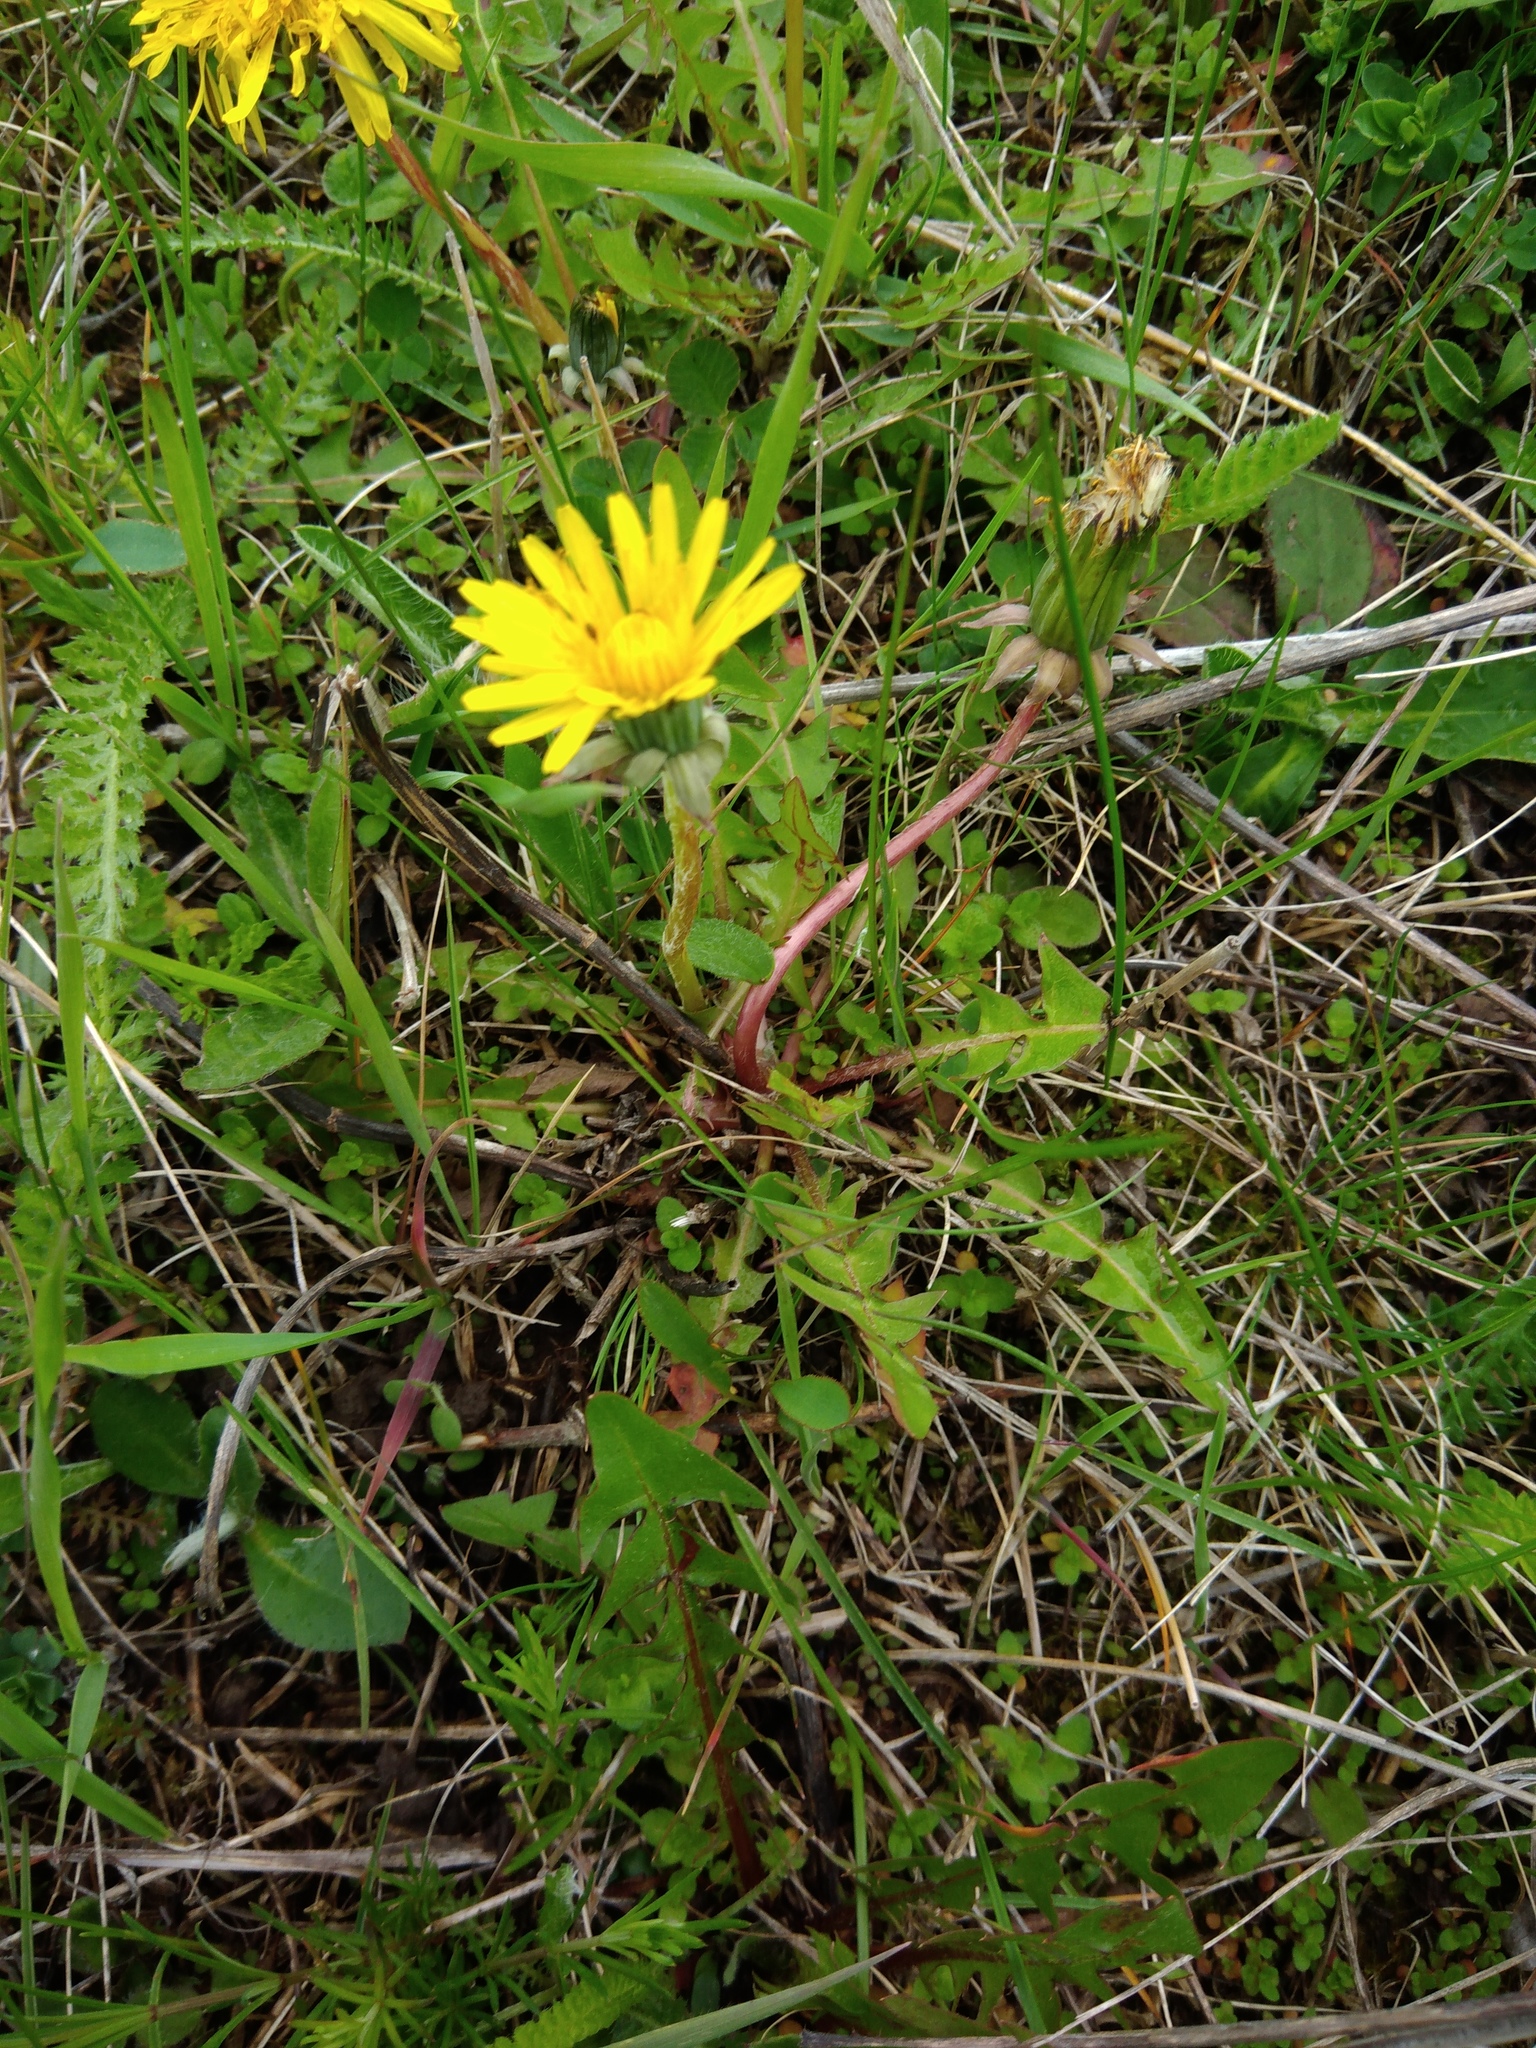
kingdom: Plantae
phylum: Tracheophyta
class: Magnoliopsida
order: Asterales
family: Asteraceae
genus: Taraxacum
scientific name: Taraxacum officinale
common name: Common dandelion
